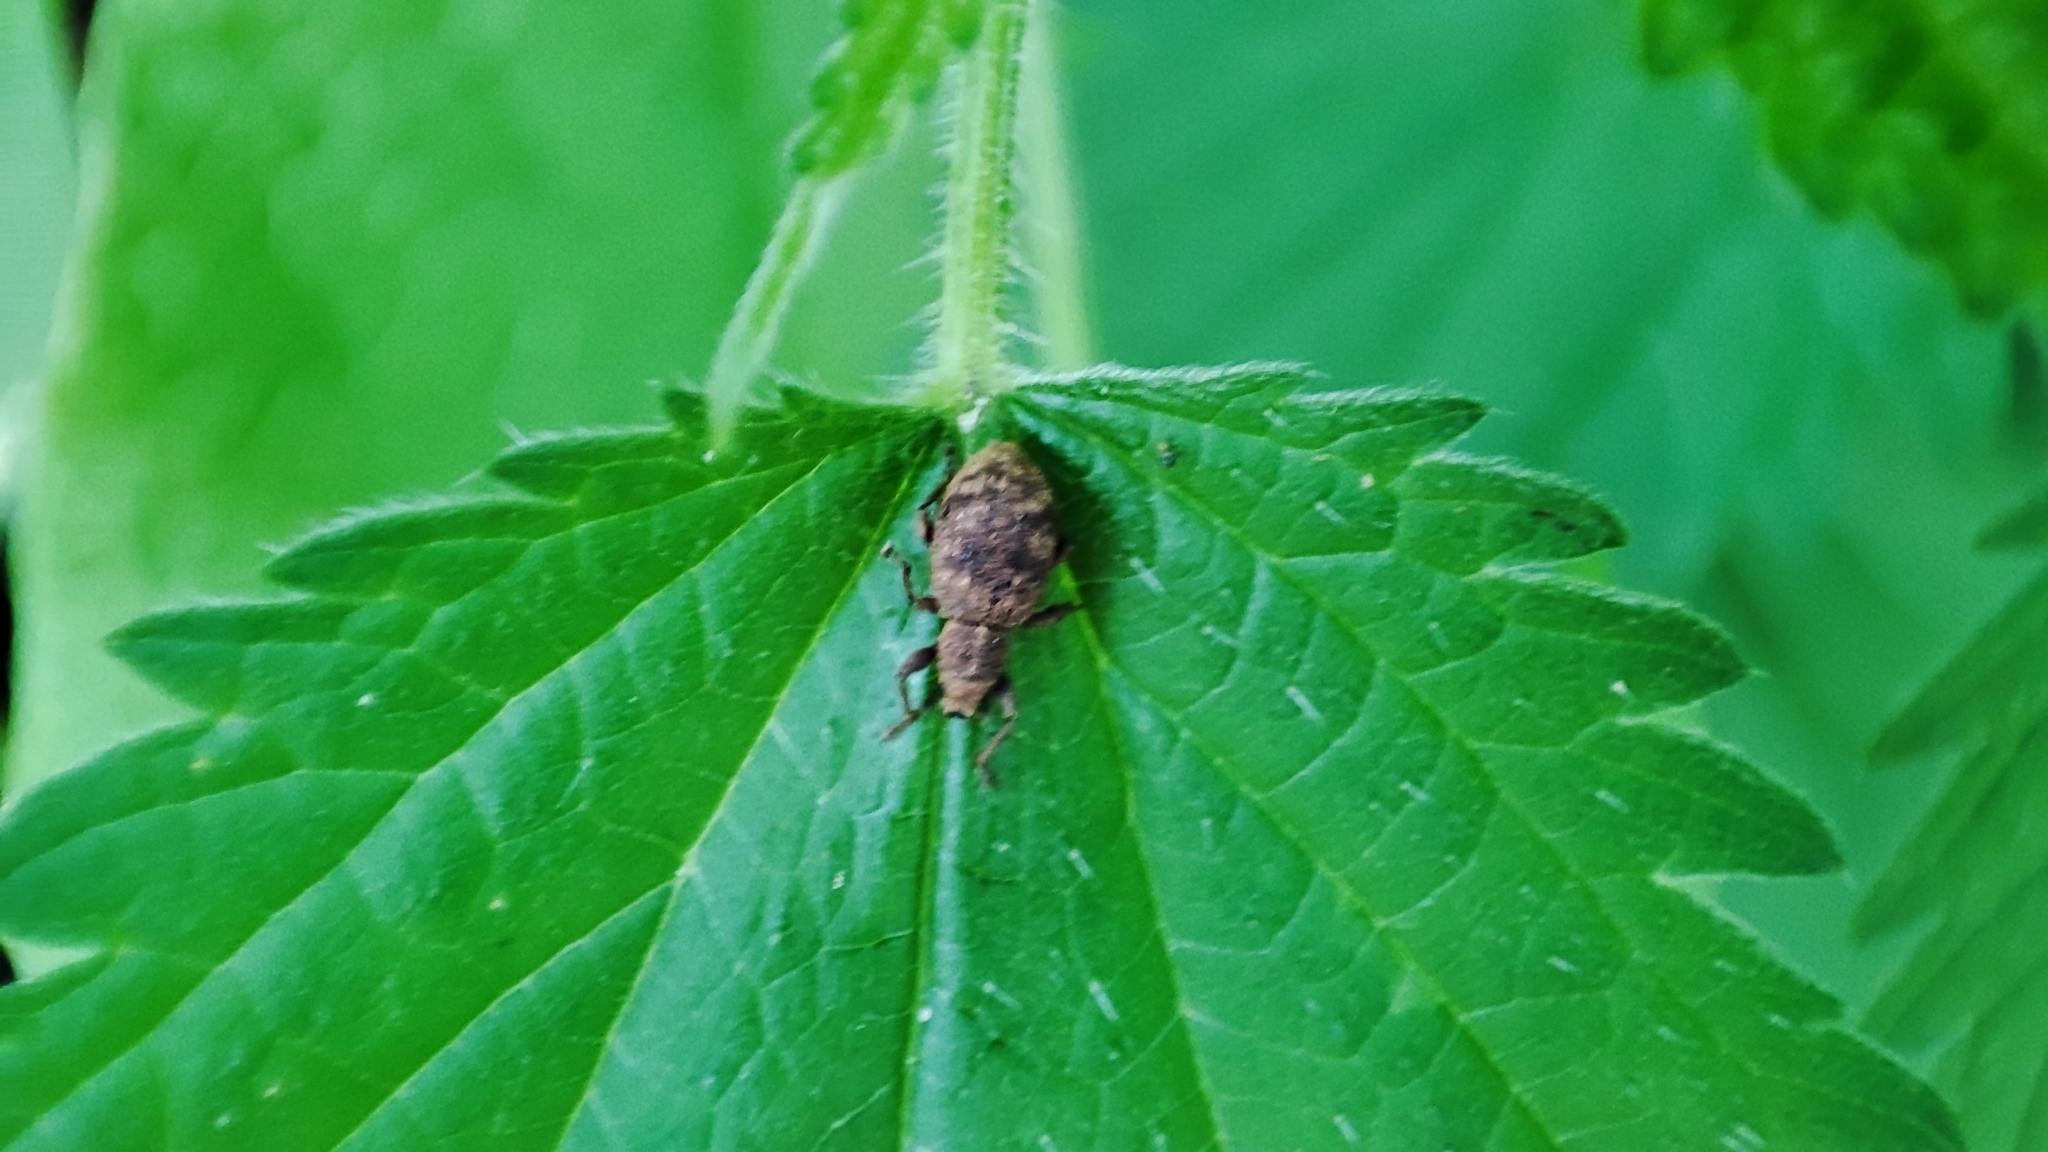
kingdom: Animalia
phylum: Arthropoda
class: Insecta
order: Coleoptera
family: Curculionidae
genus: Sciaphilus
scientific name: Sciaphilus asperatus
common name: Weevil
